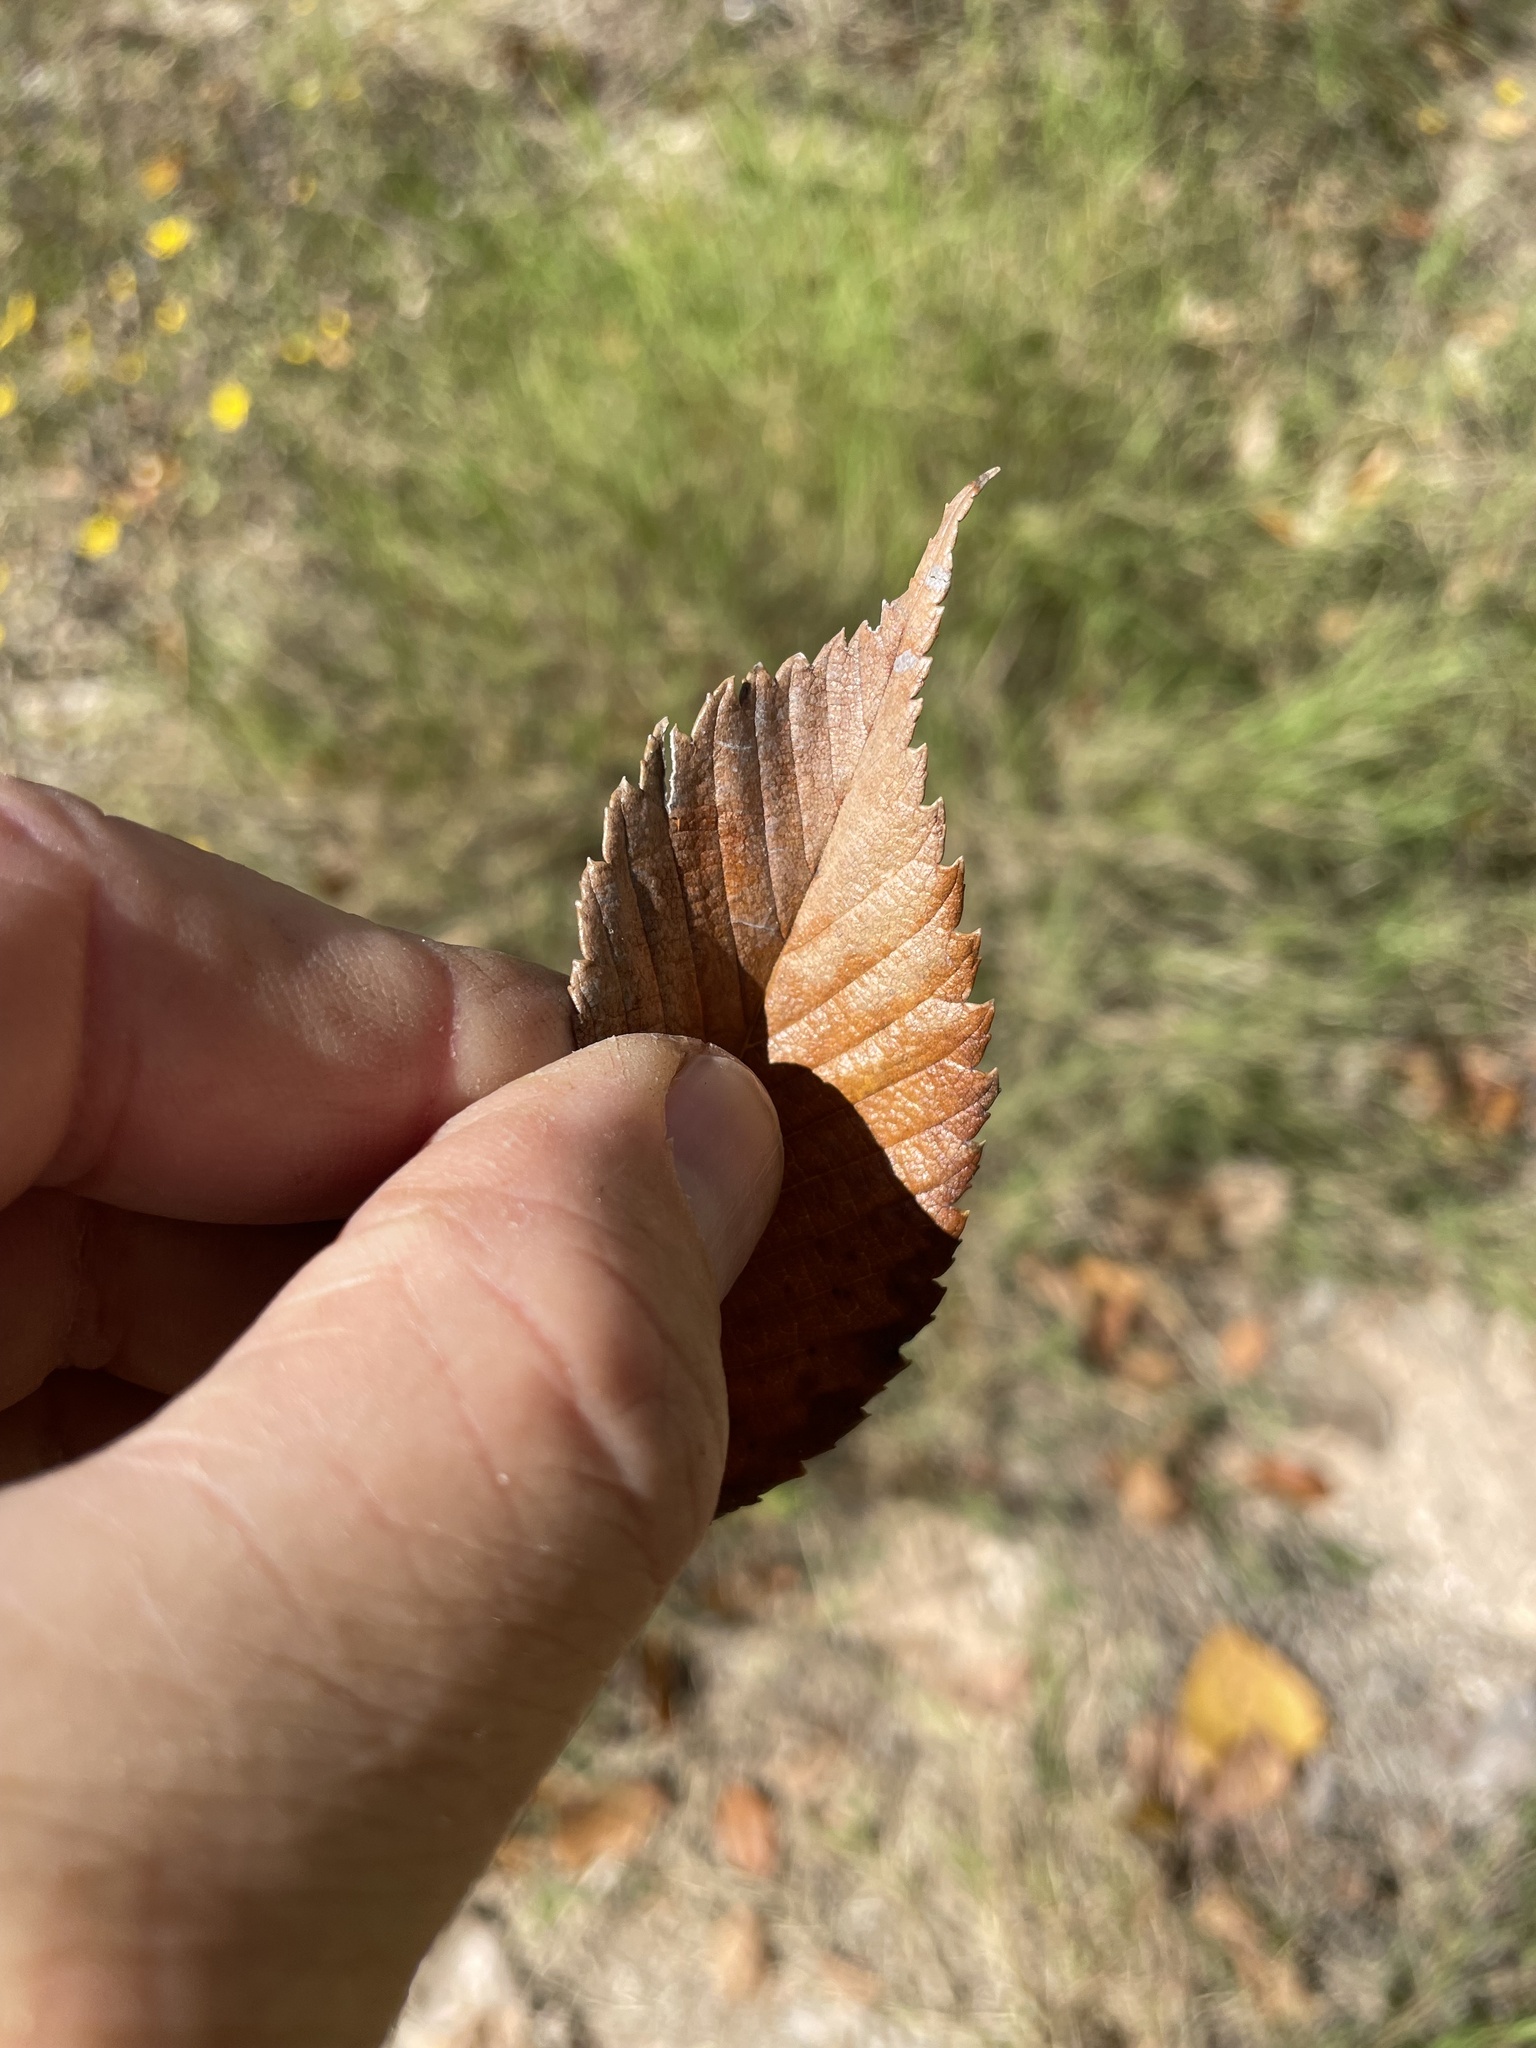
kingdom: Plantae
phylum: Tracheophyta
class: Magnoliopsida
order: Rosales
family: Ulmaceae
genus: Ulmus
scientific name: Ulmus americana
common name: American elm
